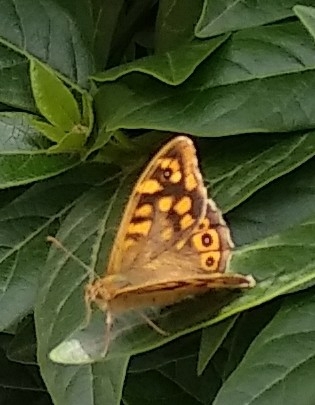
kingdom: Animalia
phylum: Arthropoda
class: Insecta
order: Lepidoptera
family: Nymphalidae
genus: Pararge
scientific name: Pararge aegeria
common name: Speckled wood
